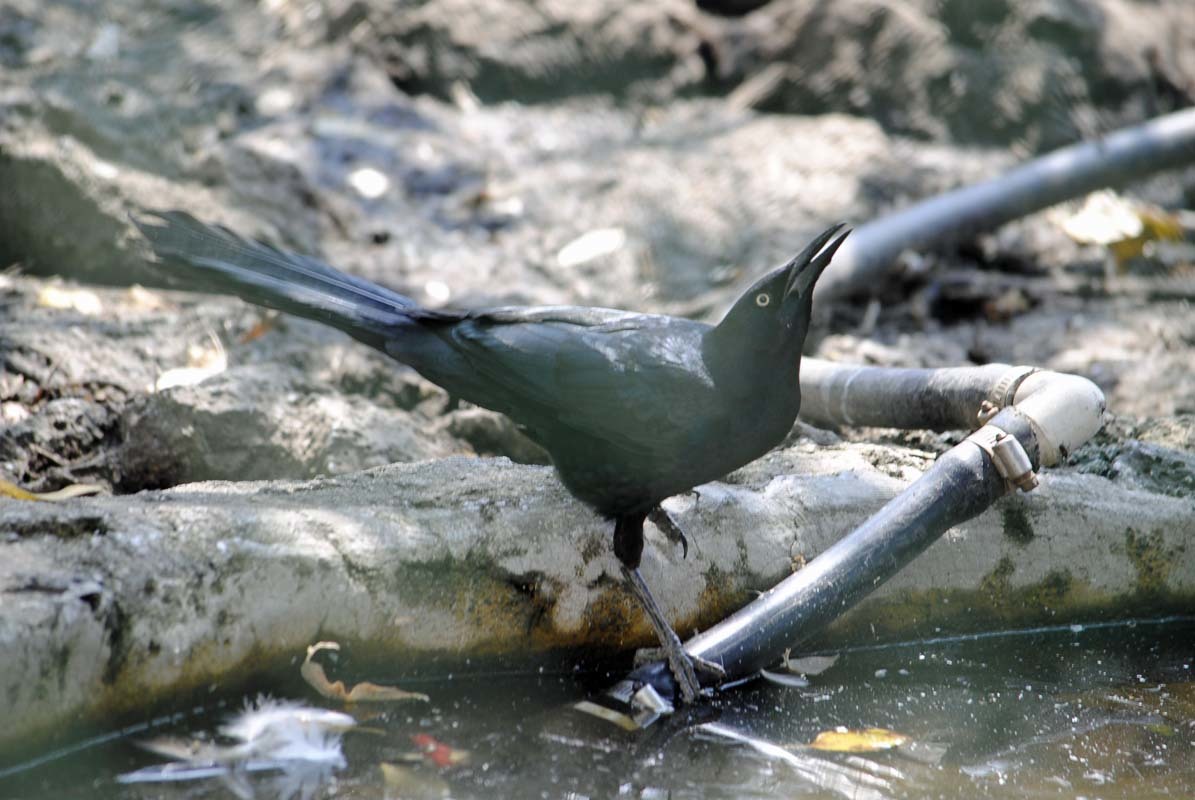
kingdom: Animalia
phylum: Chordata
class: Aves
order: Passeriformes
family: Icteridae
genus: Quiscalus
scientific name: Quiscalus mexicanus
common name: Great-tailed grackle
